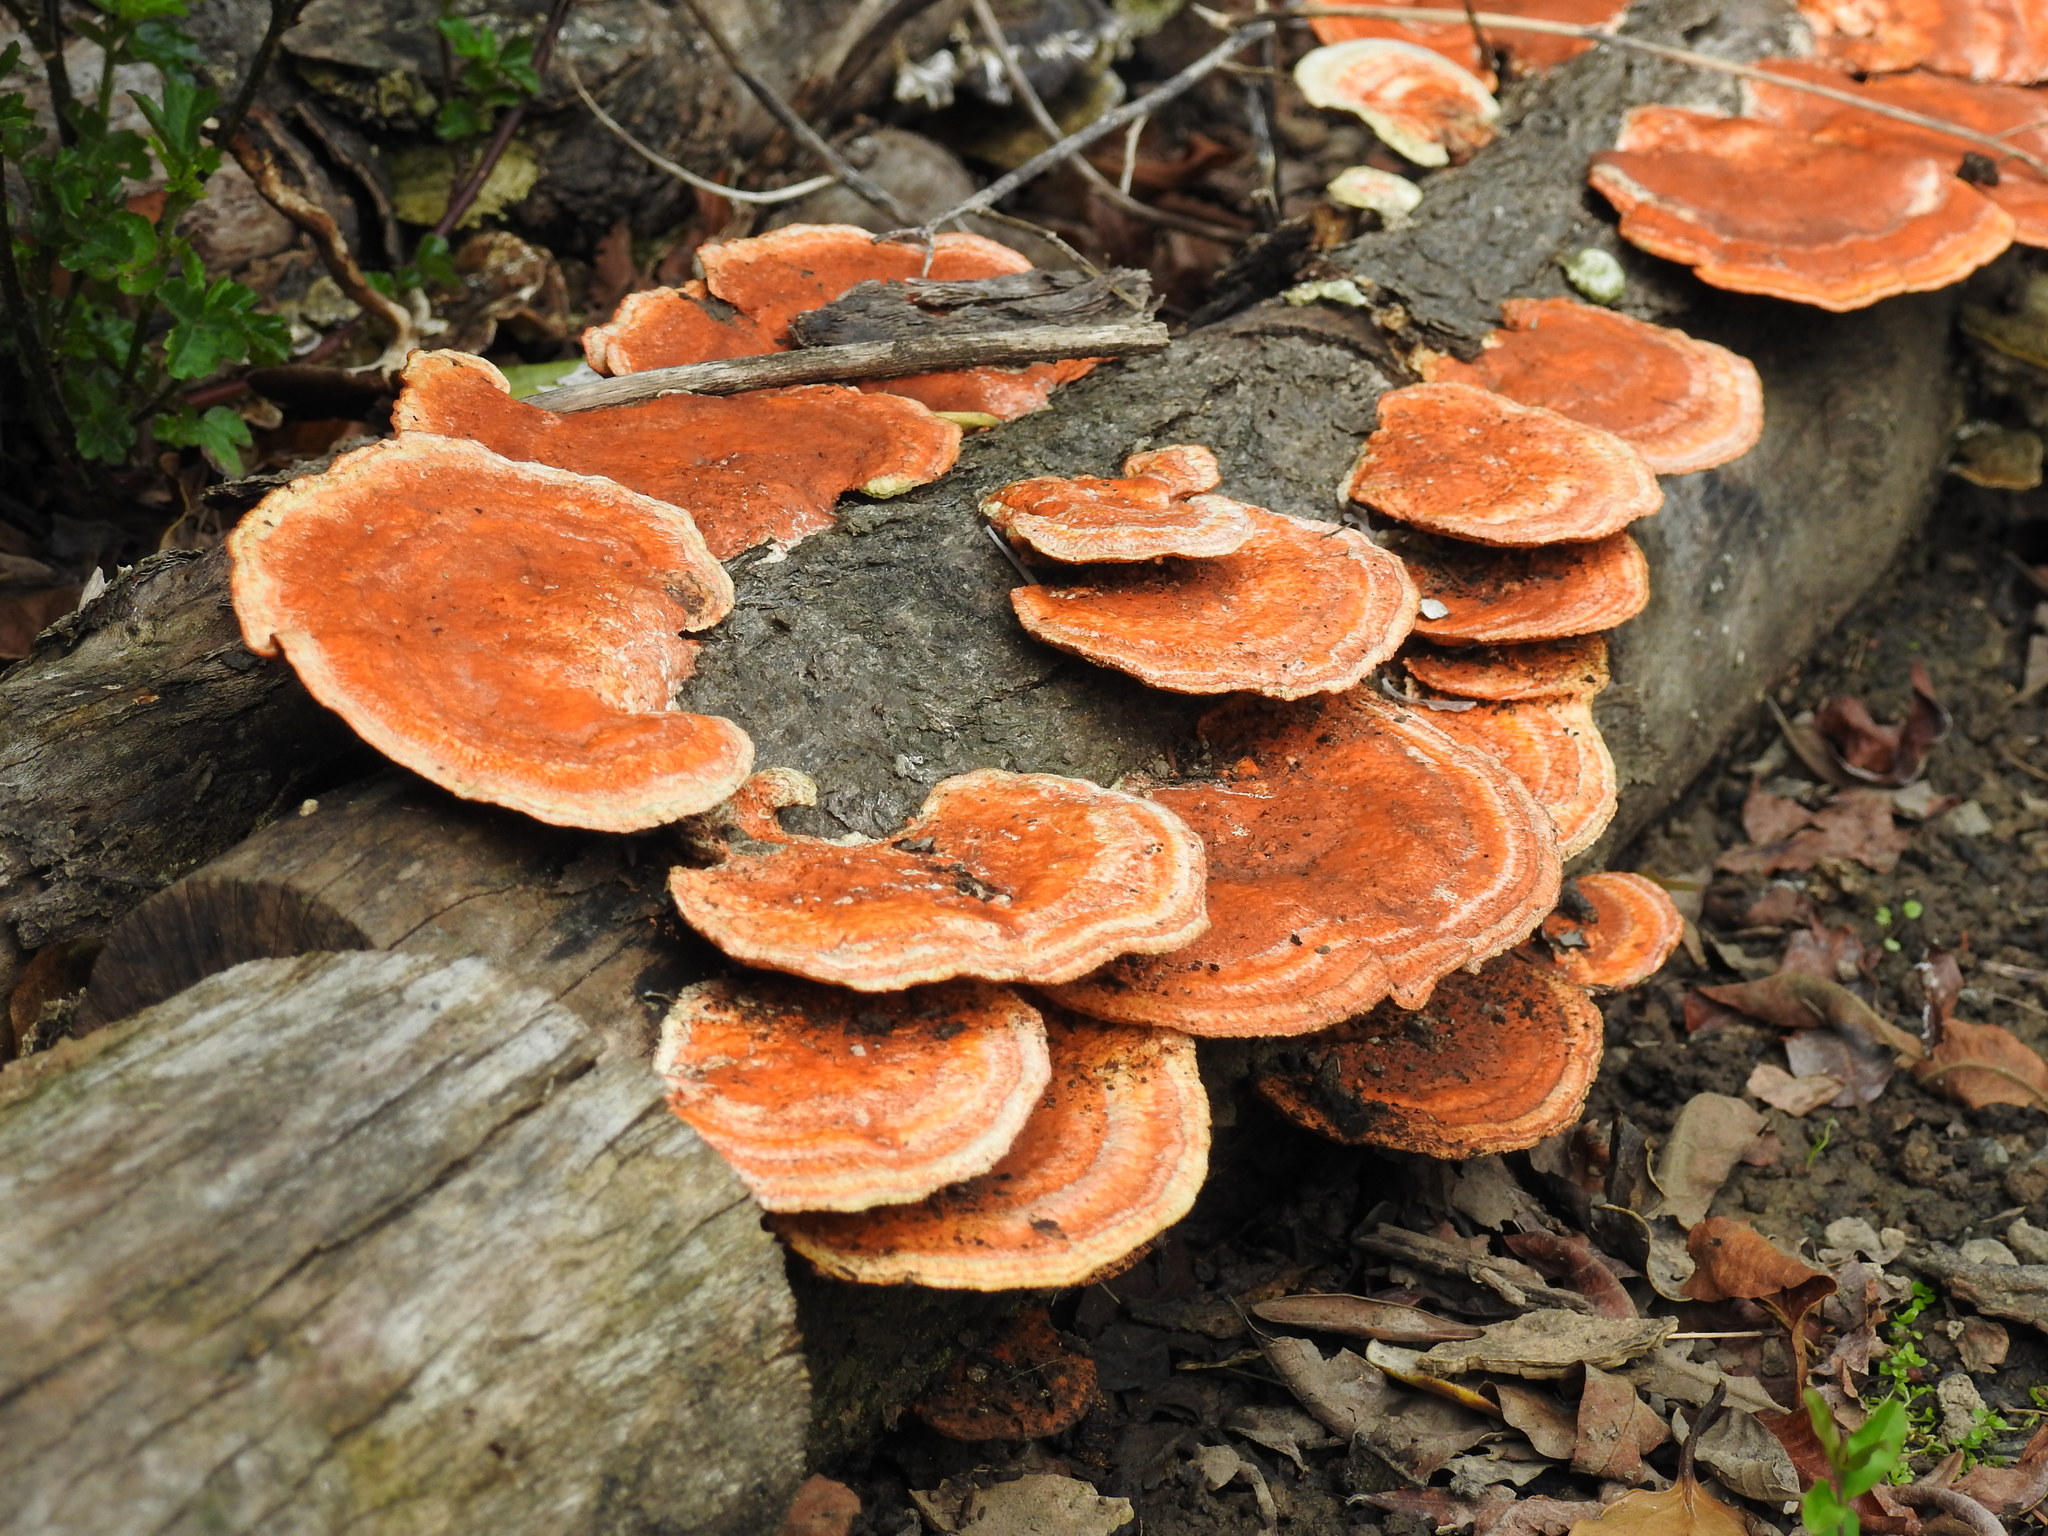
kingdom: Fungi
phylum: Basidiomycota
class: Agaricomycetes
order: Polyporales
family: Polyporaceae
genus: Trametes
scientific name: Trametes coccinea
